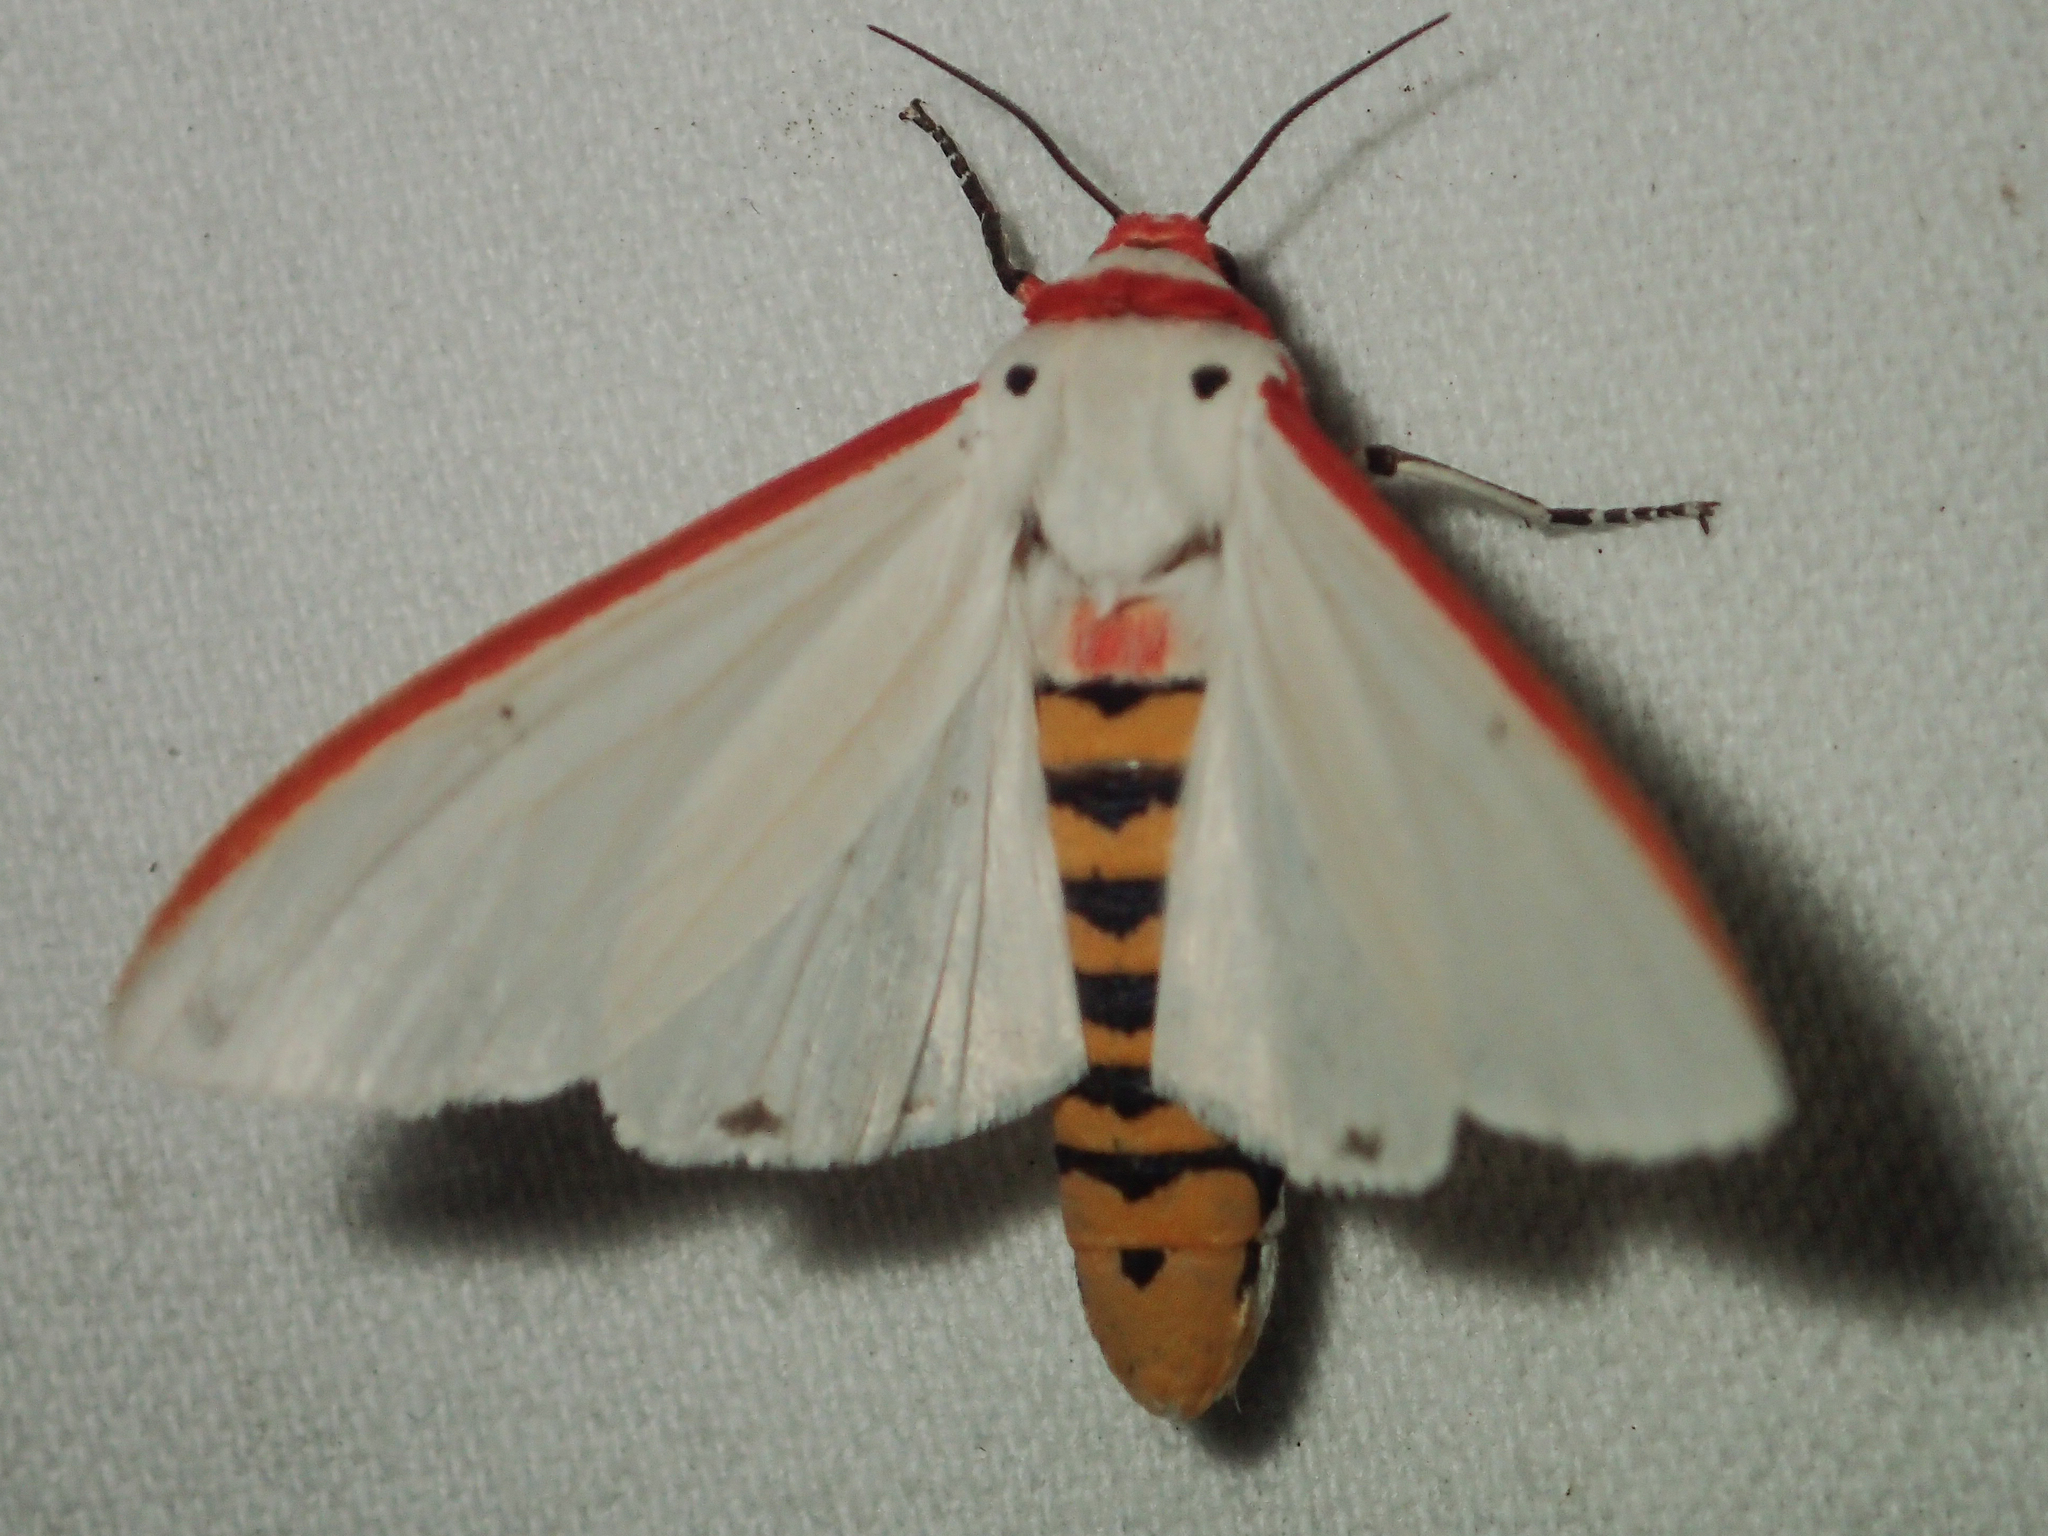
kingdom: Animalia
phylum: Arthropoda
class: Insecta
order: Lepidoptera
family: Erebidae
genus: Aloa
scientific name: Aloa lactinea
